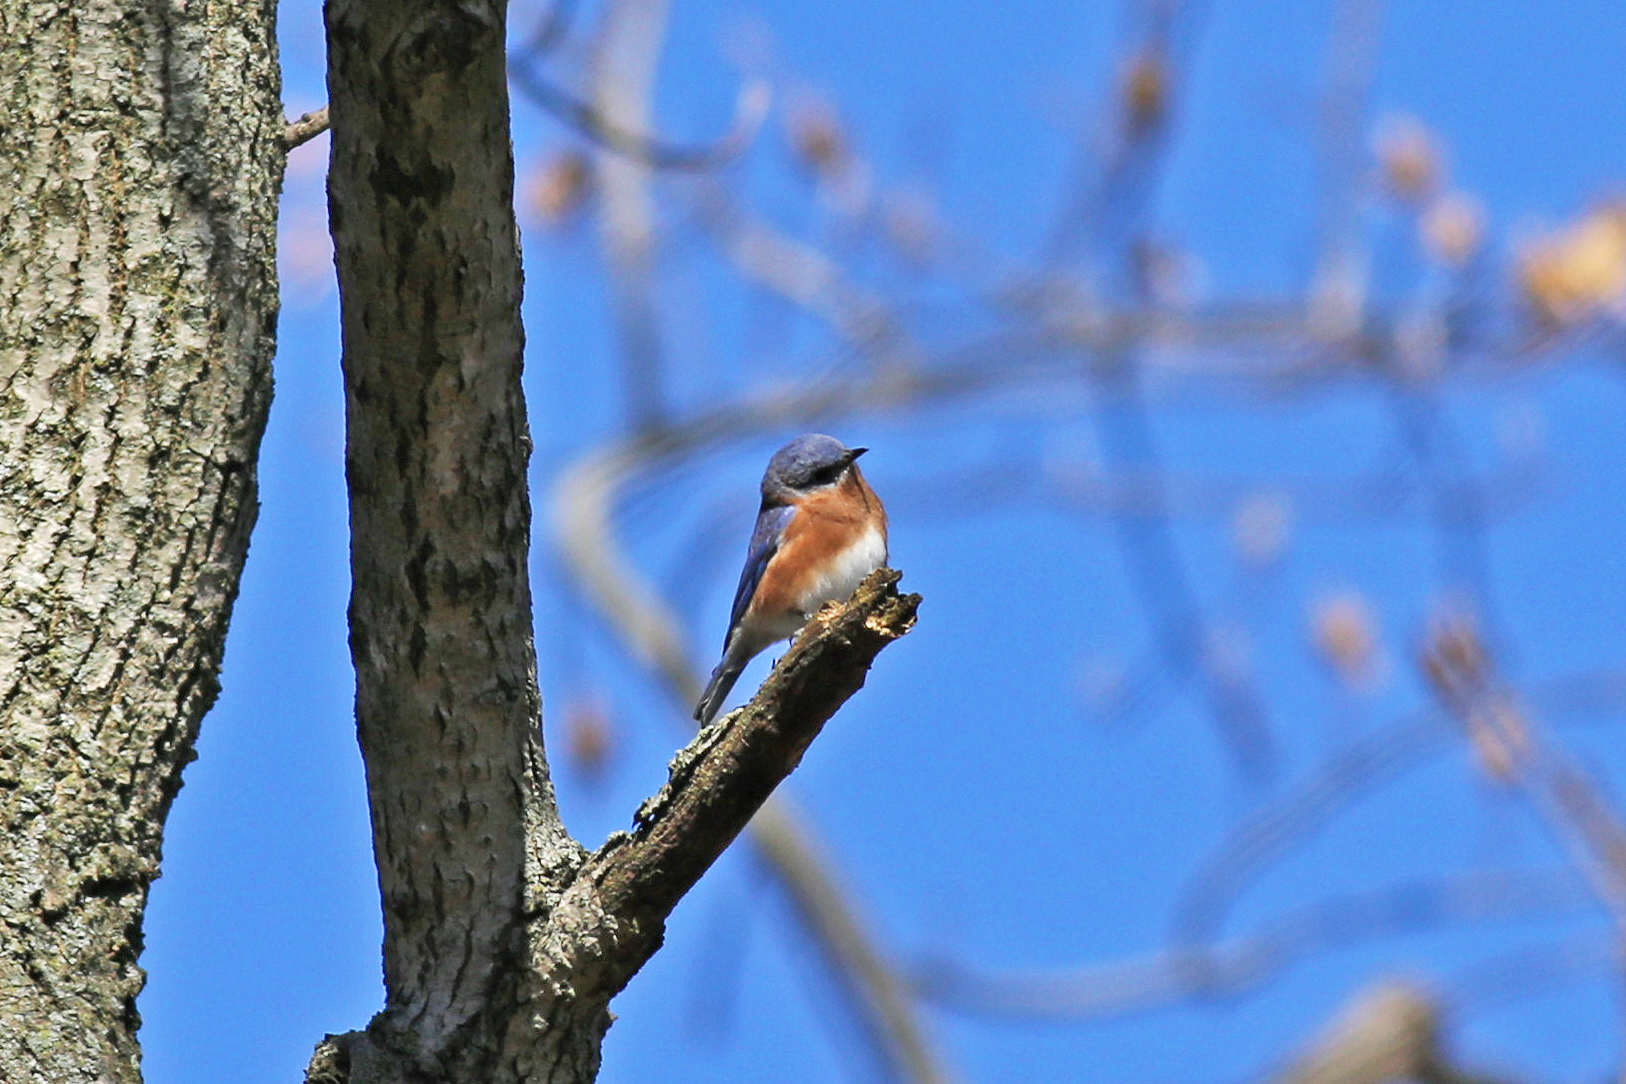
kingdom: Animalia
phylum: Chordata
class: Aves
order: Passeriformes
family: Turdidae
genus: Sialia
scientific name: Sialia sialis
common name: Eastern bluebird
